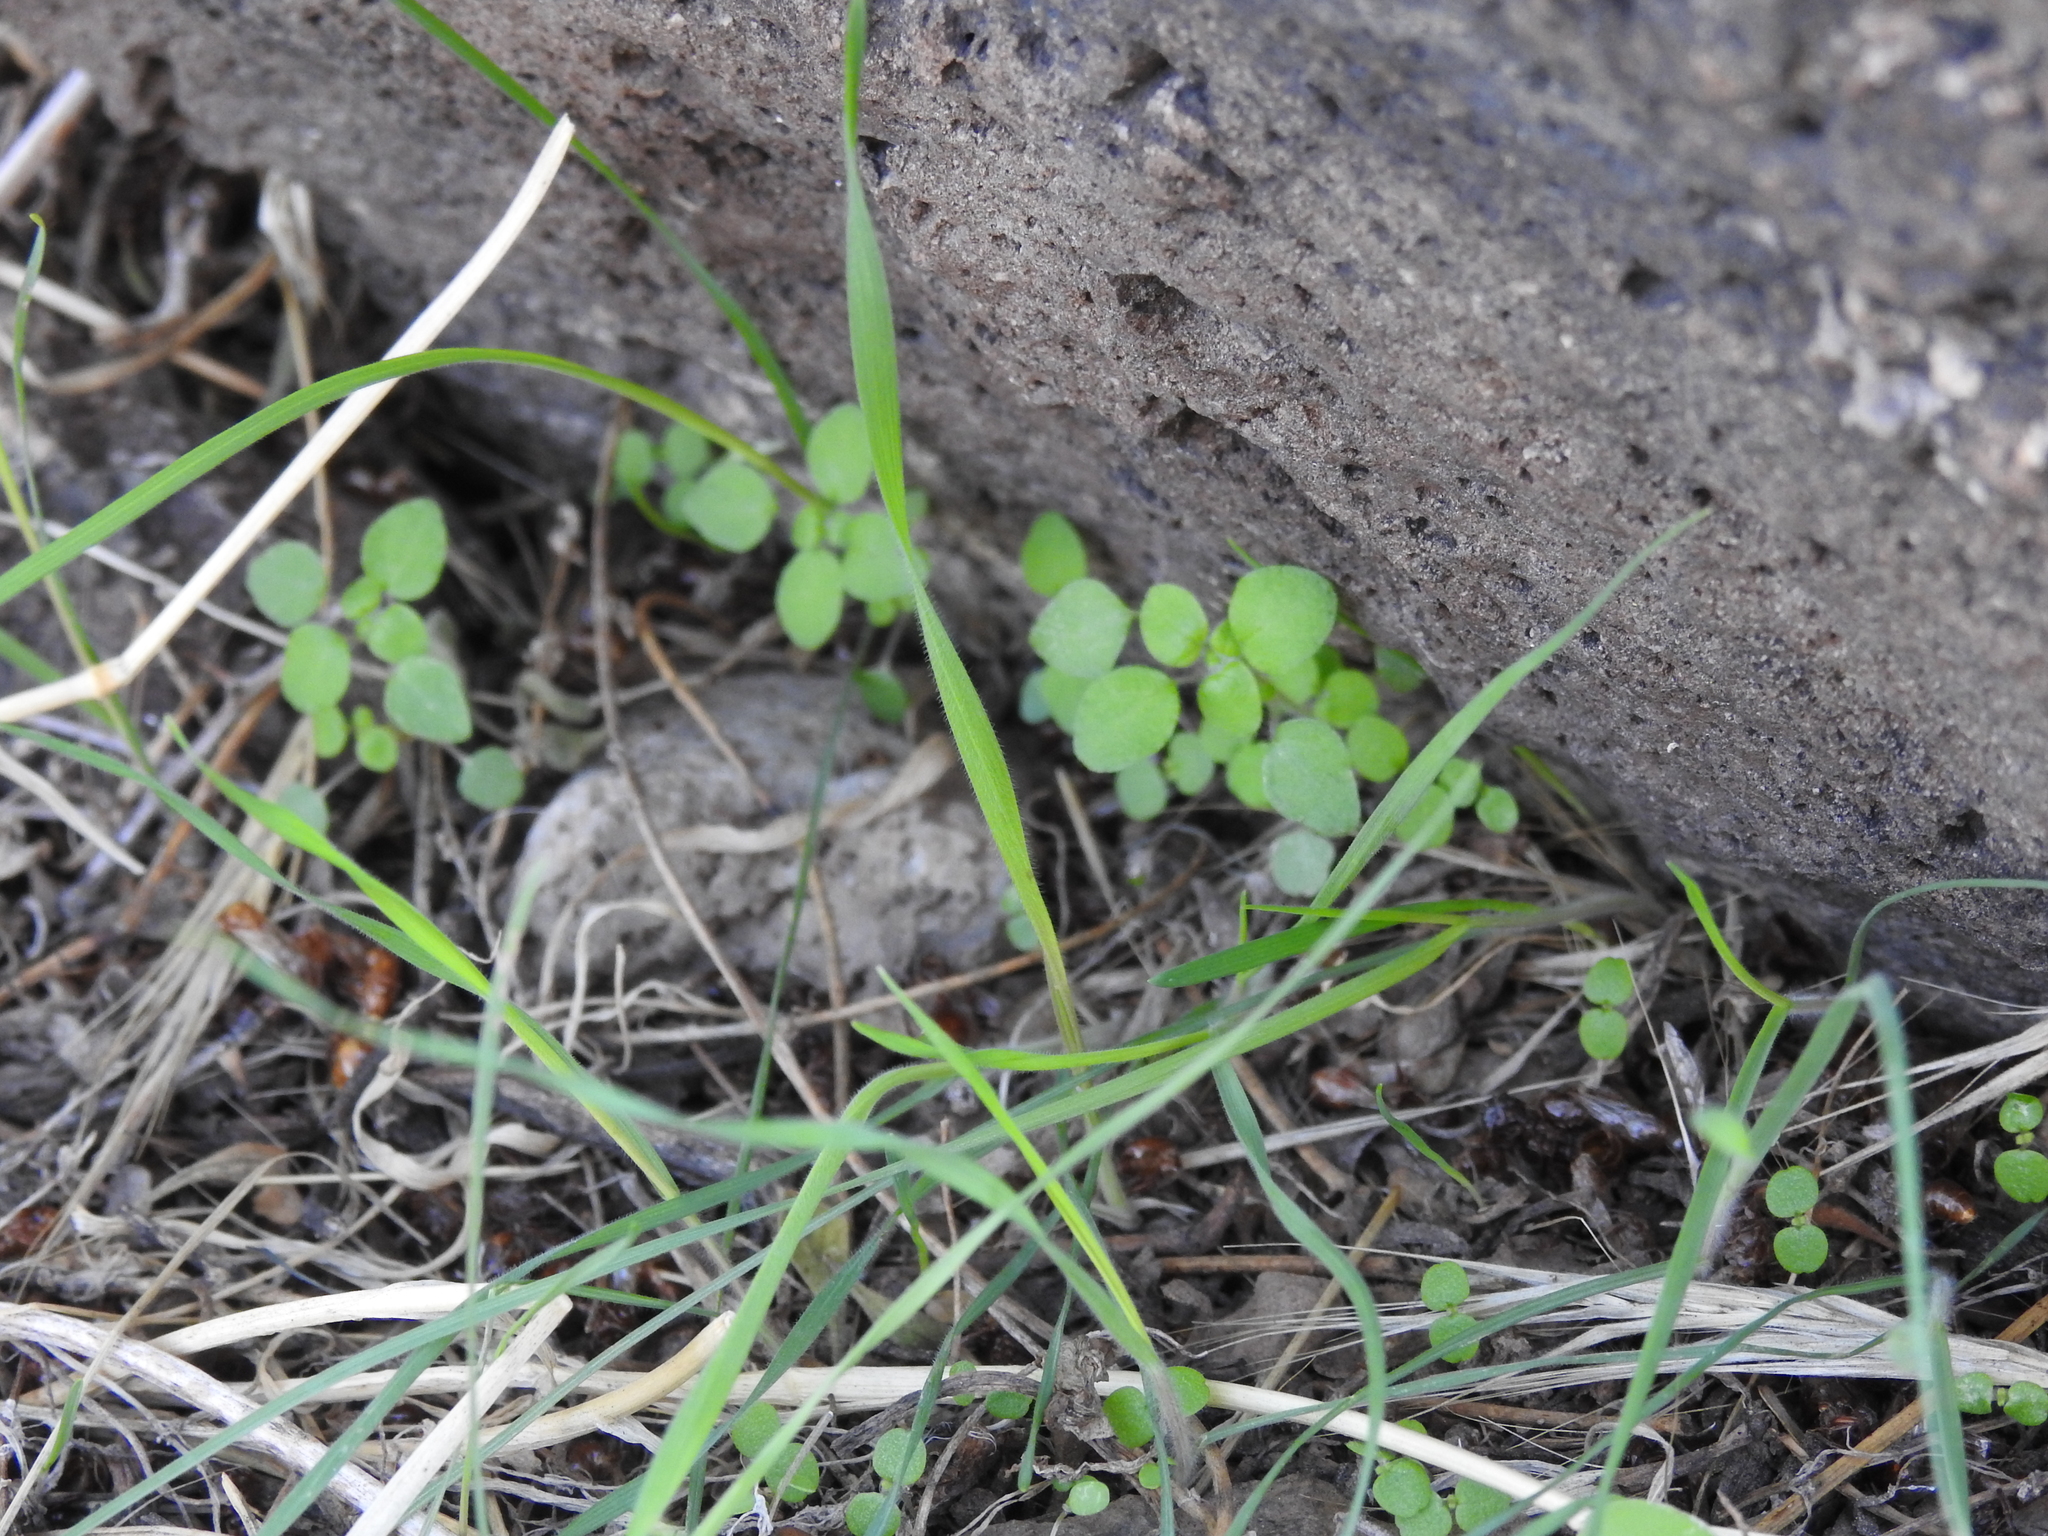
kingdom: Plantae
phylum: Tracheophyta
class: Magnoliopsida
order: Rosales
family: Urticaceae
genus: Parietaria
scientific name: Parietaria hespera
